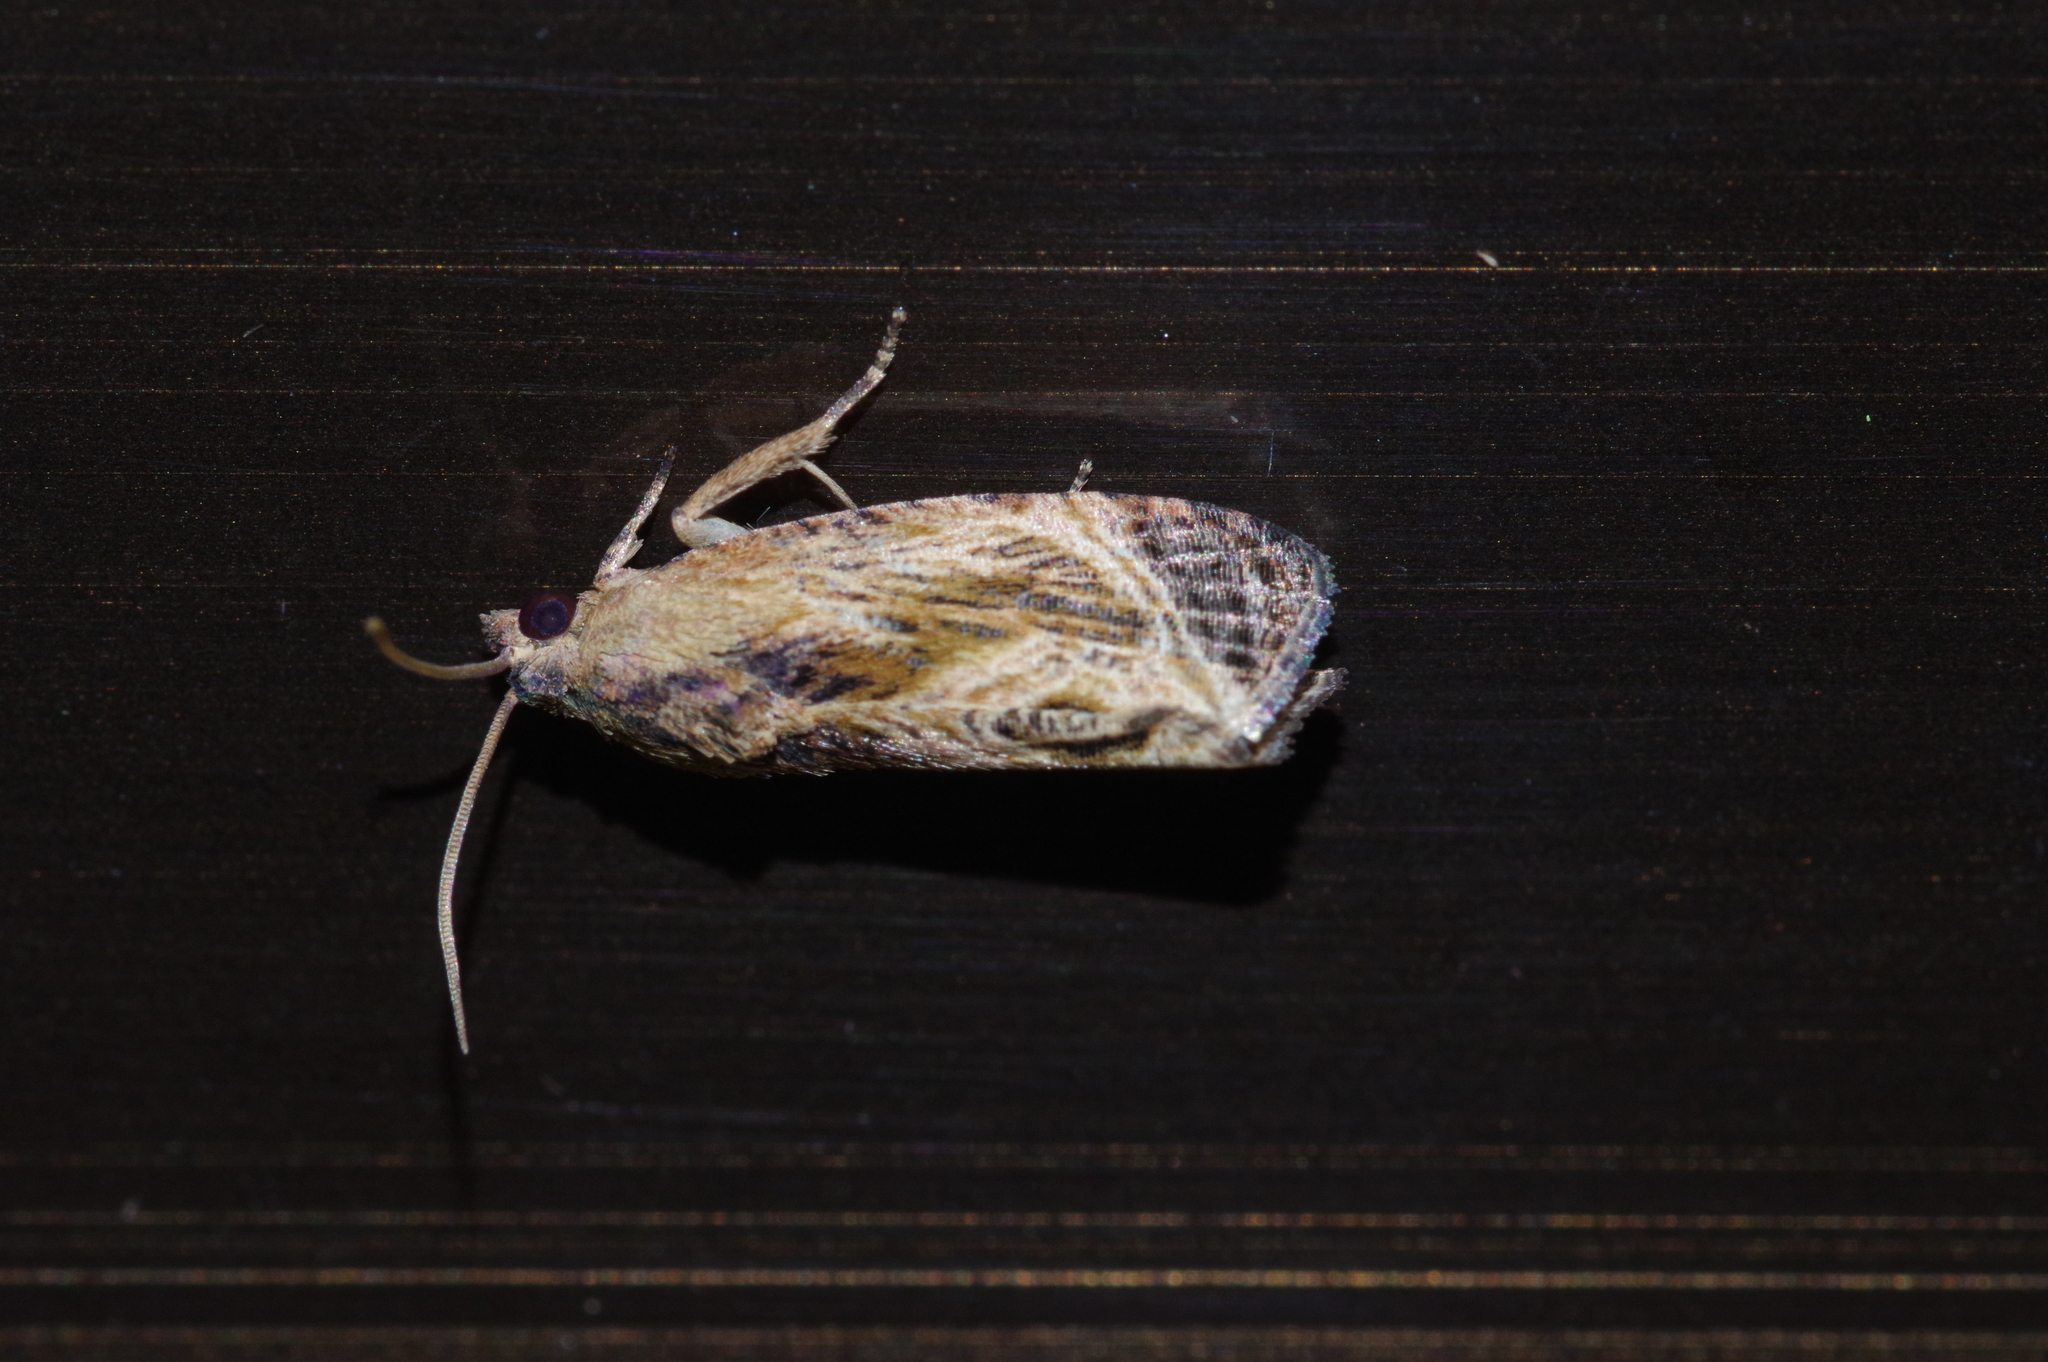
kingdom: Animalia
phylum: Arthropoda
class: Insecta
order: Lepidoptera
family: Tortricidae
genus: Cryptophlebia
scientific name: Cryptophlebia repletana
